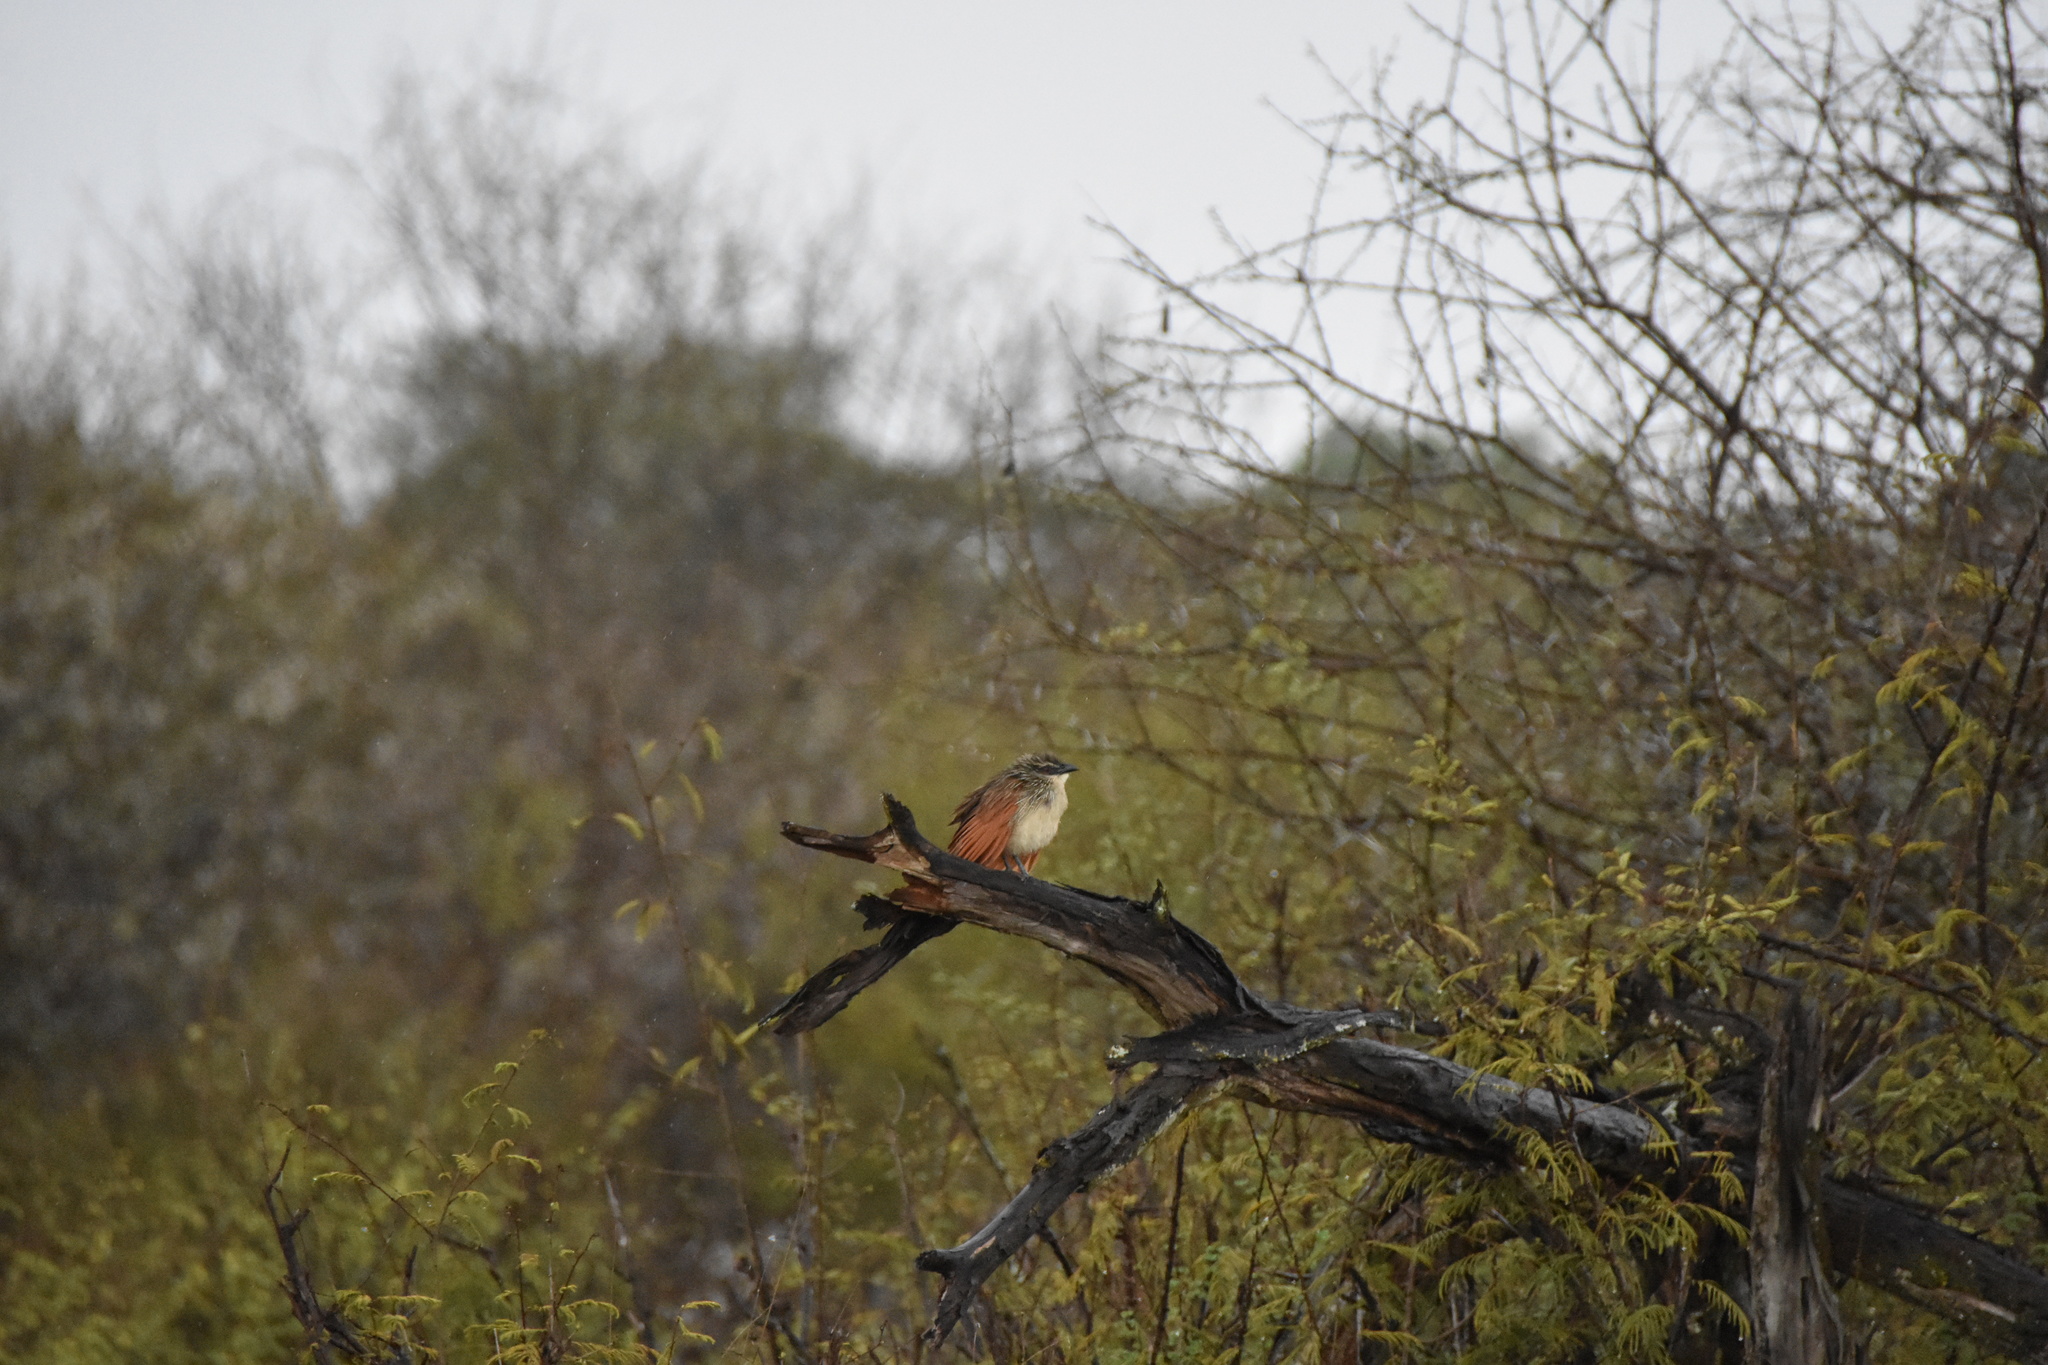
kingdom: Animalia
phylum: Chordata
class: Aves
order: Cuculiformes
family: Cuculidae
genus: Centropus
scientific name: Centropus superciliosus
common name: White-browed coucal
